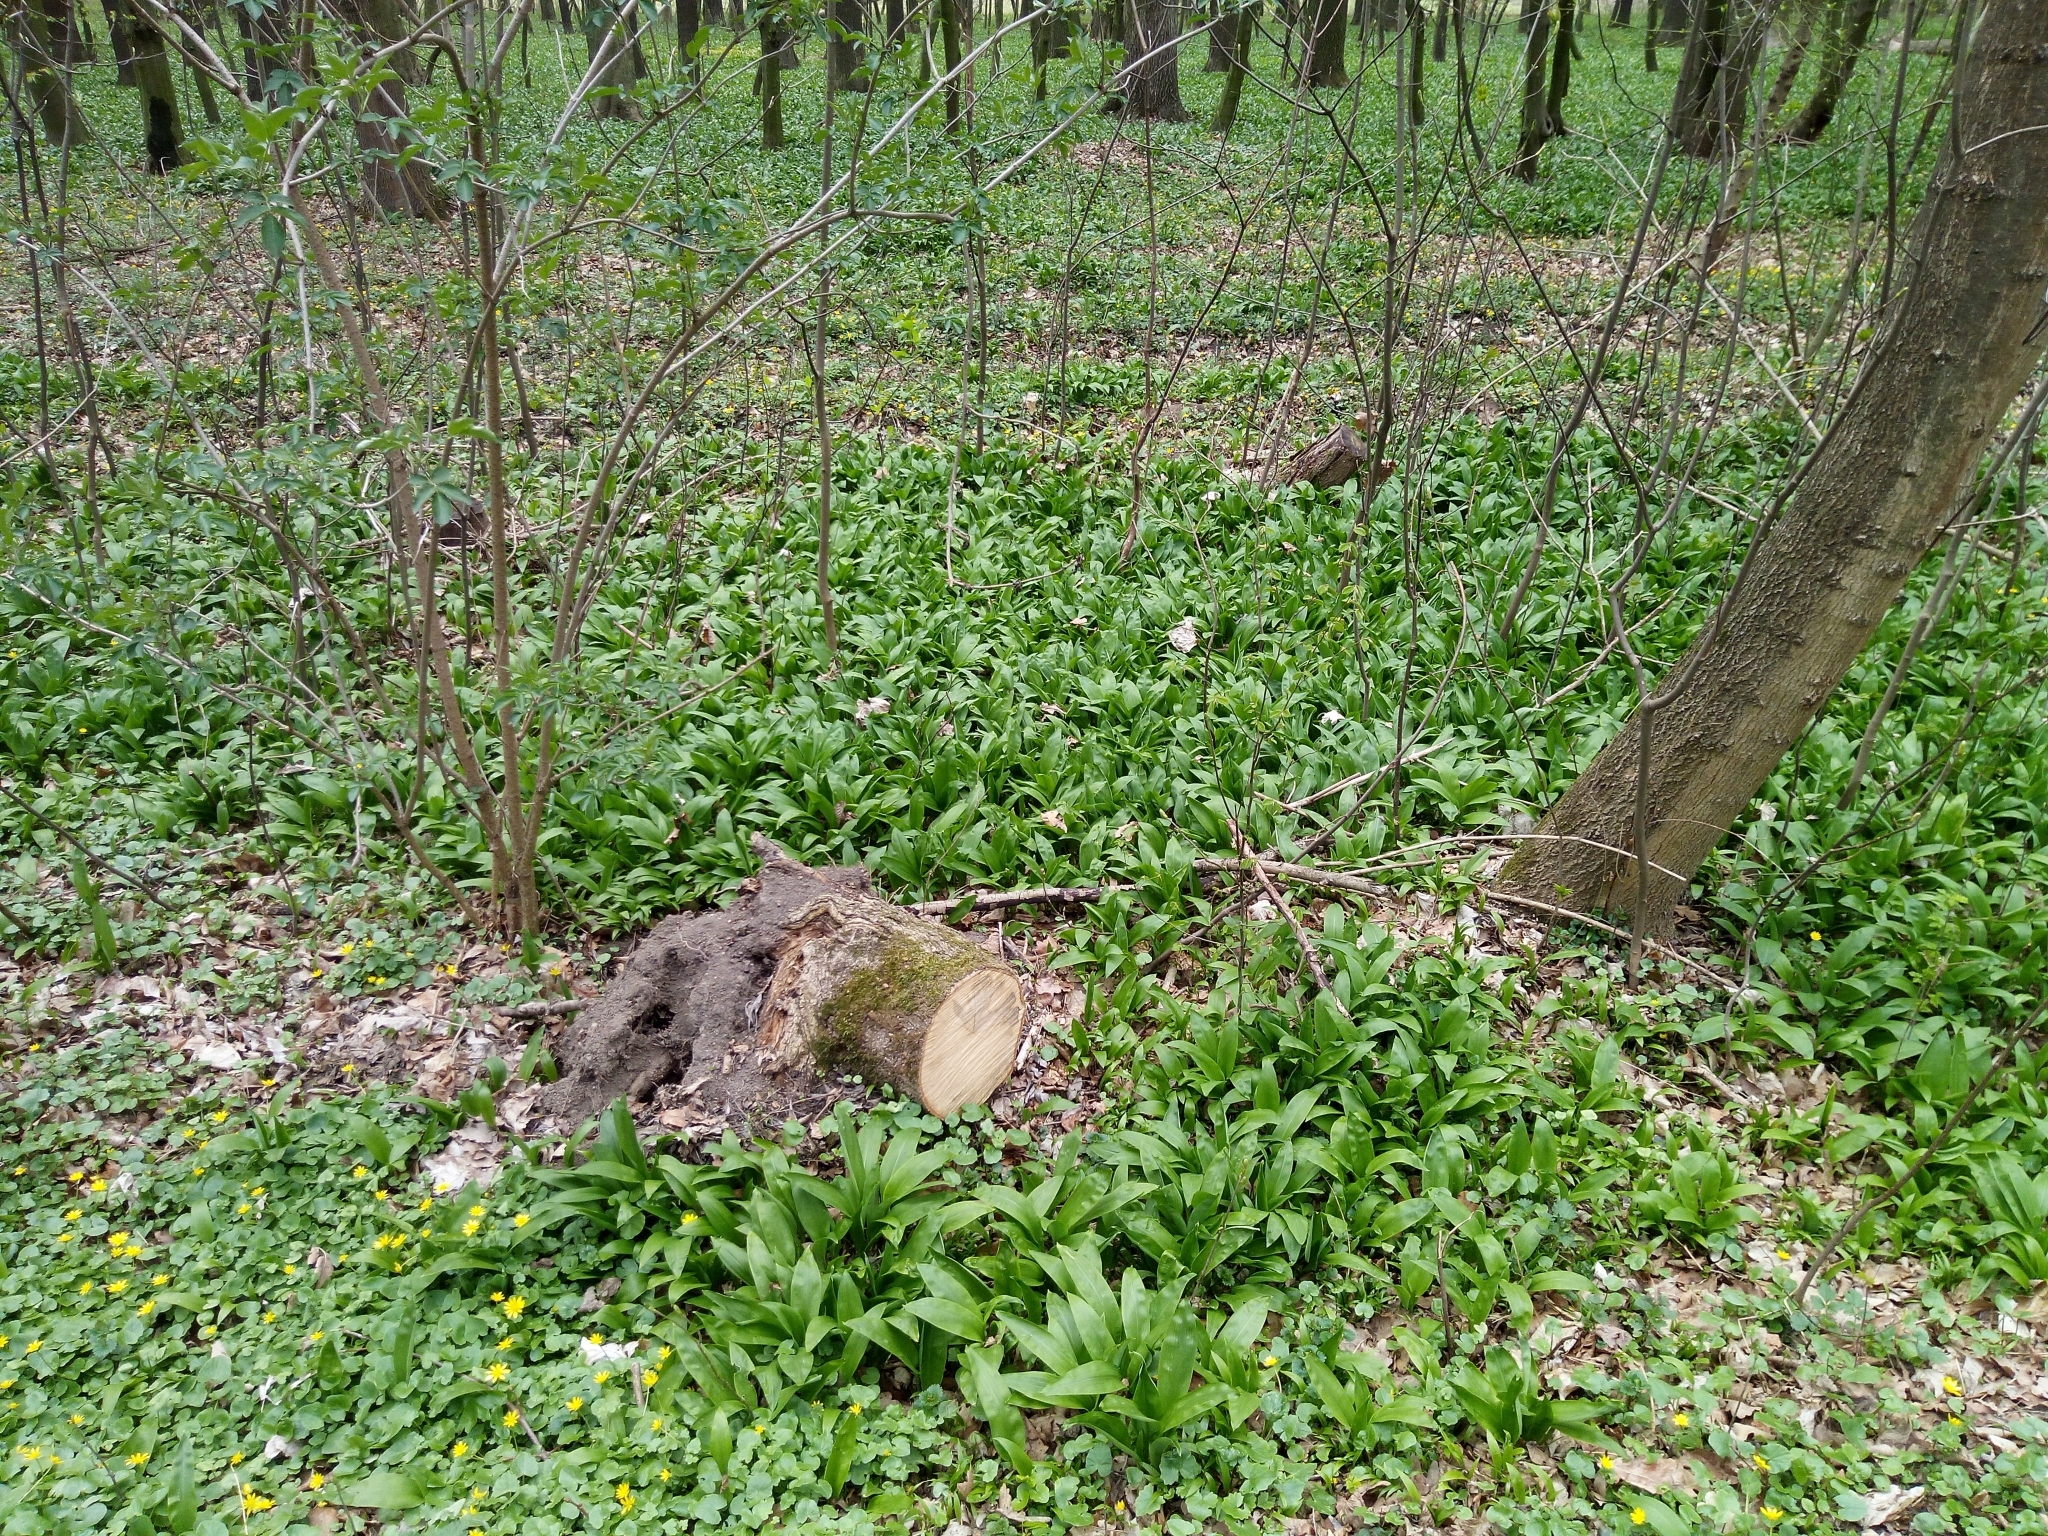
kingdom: Plantae
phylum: Tracheophyta
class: Liliopsida
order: Asparagales
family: Amaryllidaceae
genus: Allium
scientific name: Allium ursinum
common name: Ramsons
